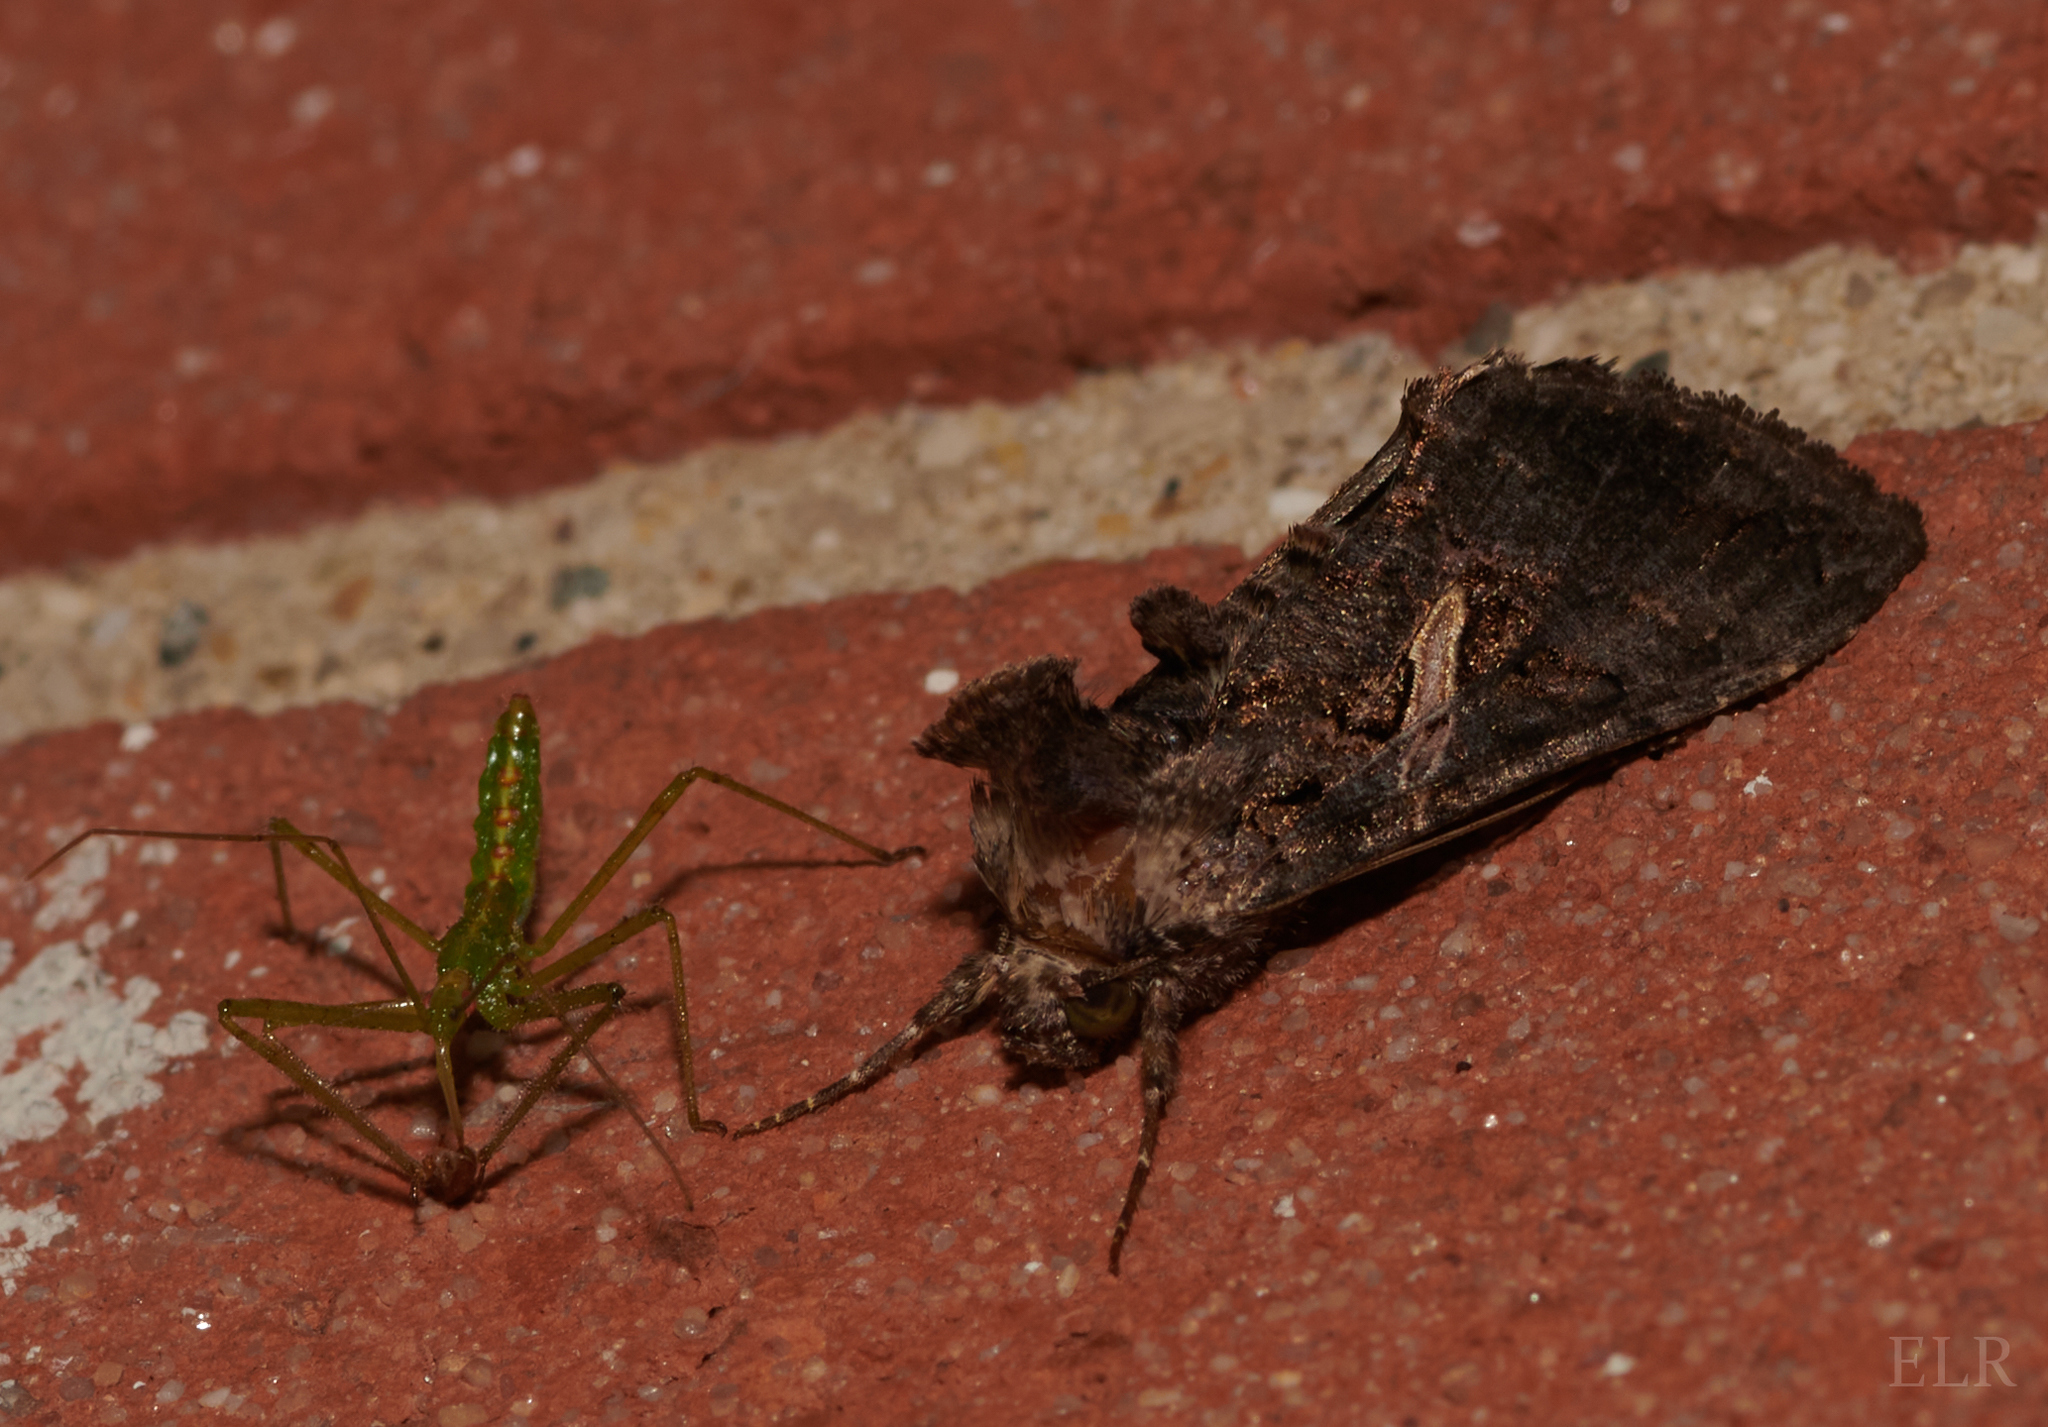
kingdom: Animalia
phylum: Arthropoda
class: Insecta
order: Lepidoptera
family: Noctuidae
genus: Ctenoplusia
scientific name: Ctenoplusia oxygramma
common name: Sharp-stigma looper moth
